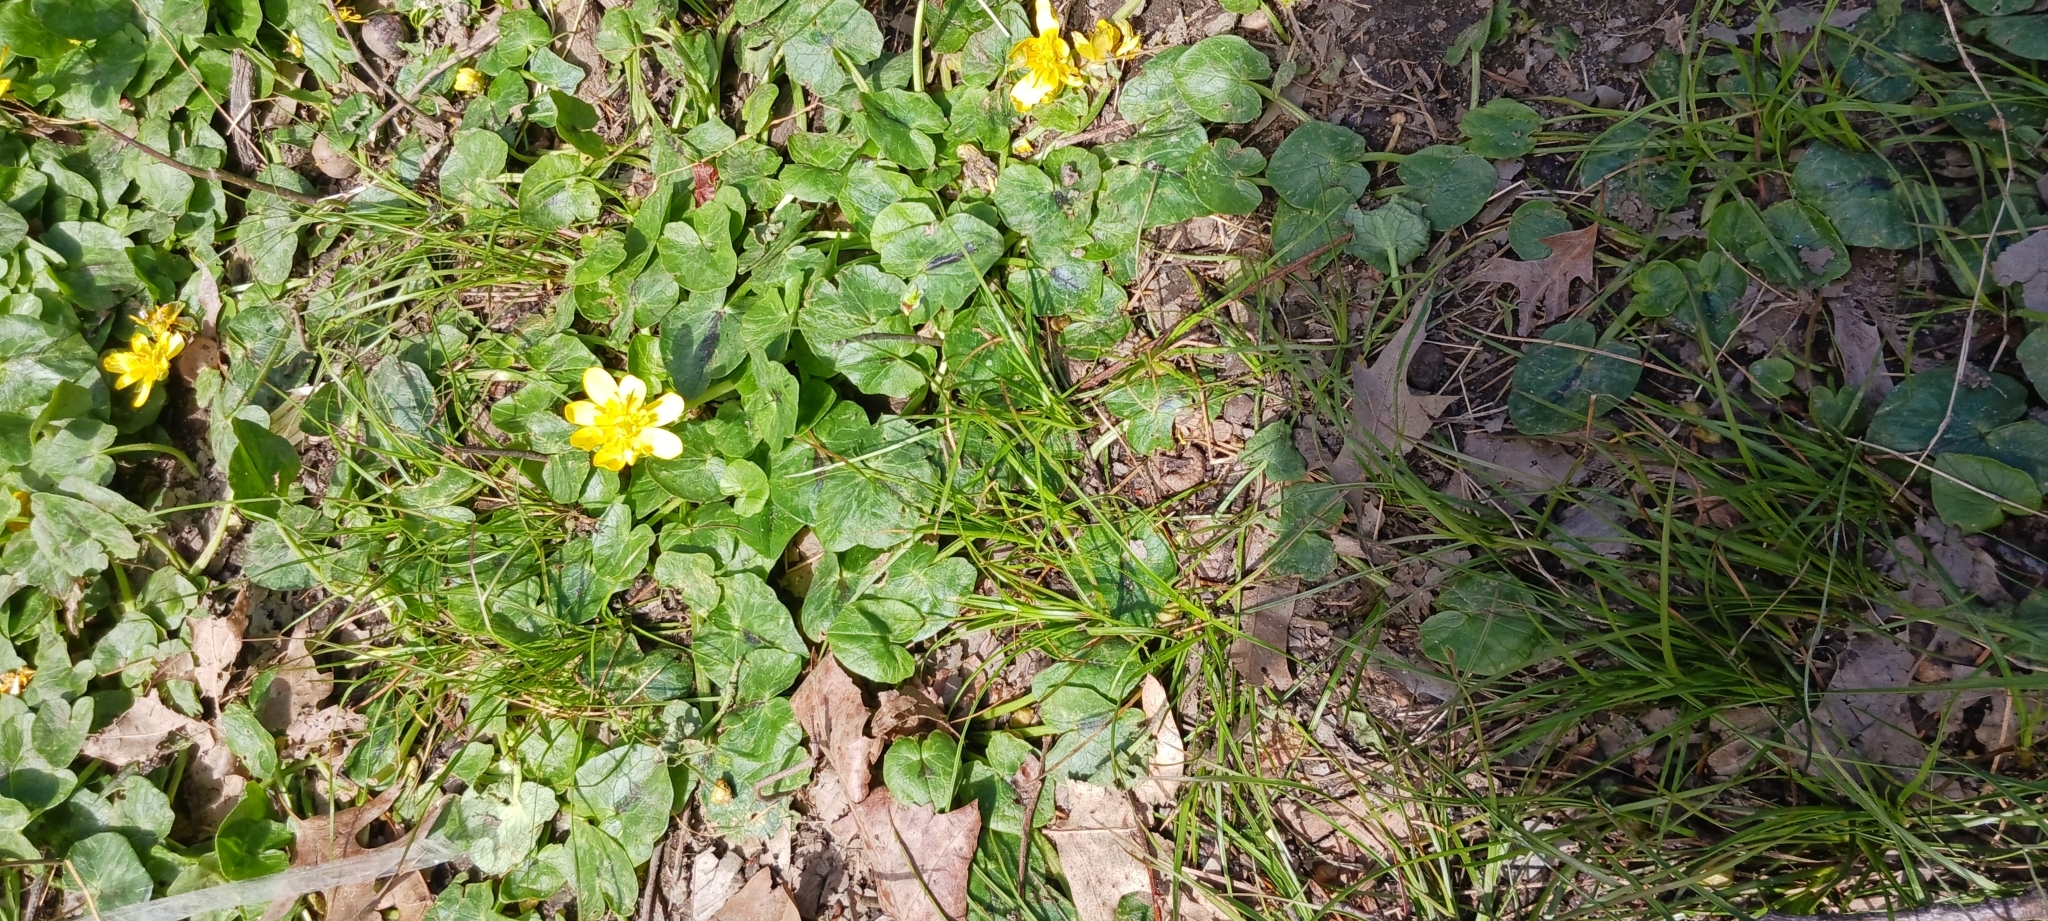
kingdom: Plantae
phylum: Tracheophyta
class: Magnoliopsida
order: Ranunculales
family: Ranunculaceae
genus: Ficaria
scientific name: Ficaria verna
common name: Lesser celandine
